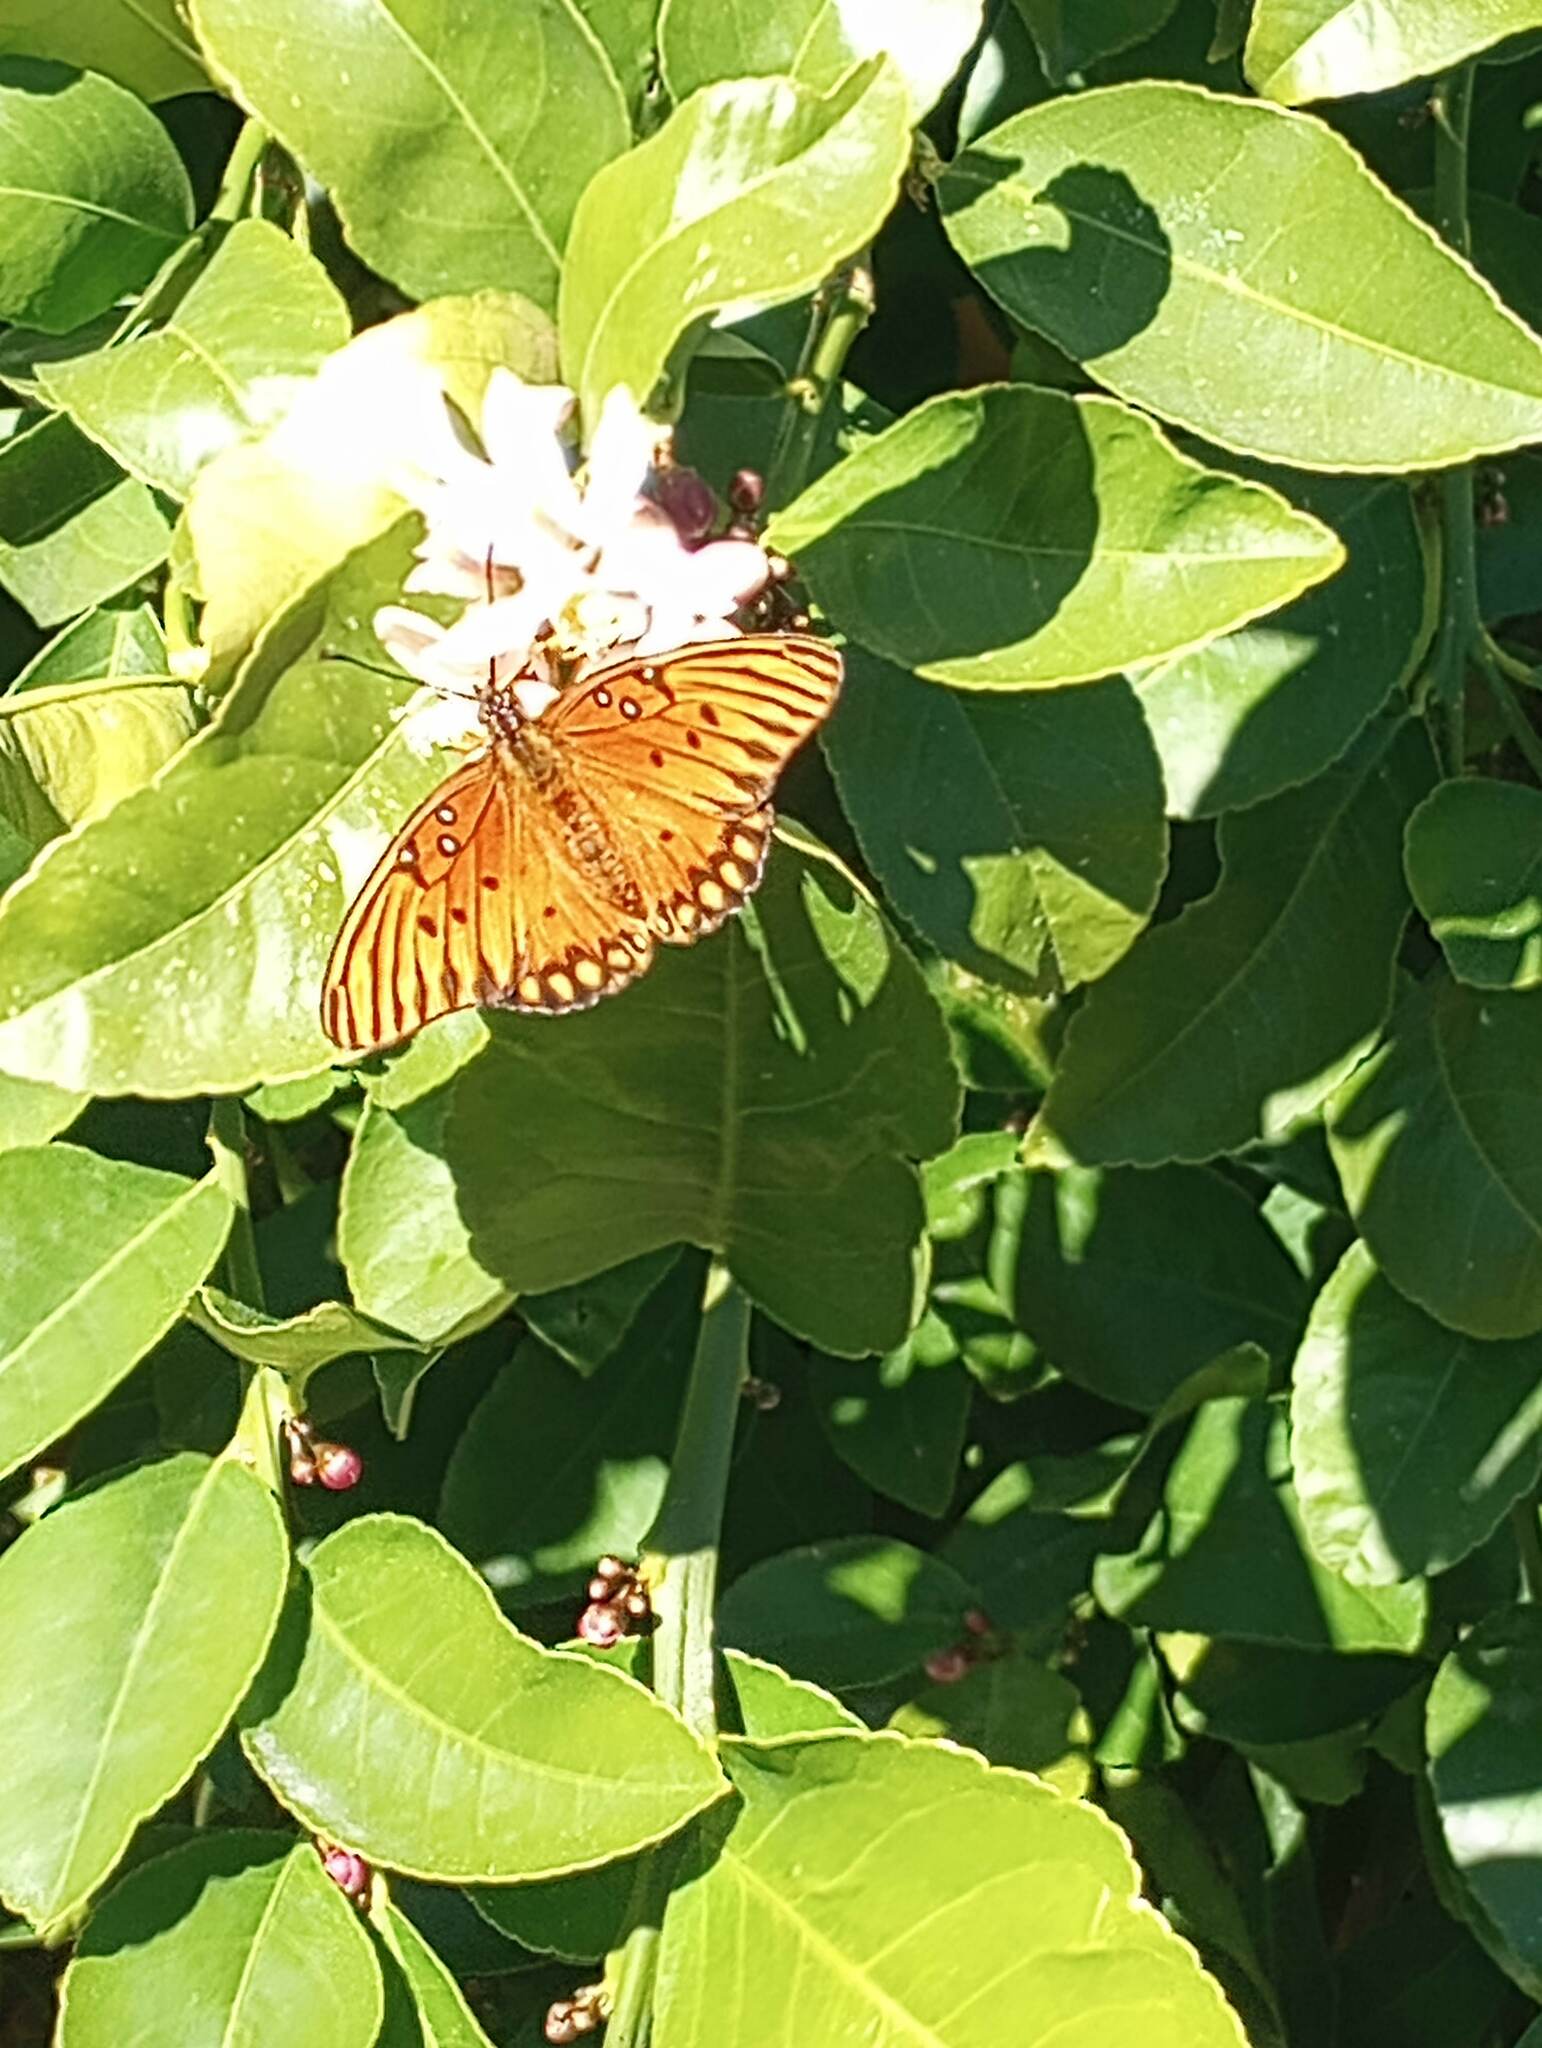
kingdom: Animalia
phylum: Arthropoda
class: Insecta
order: Lepidoptera
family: Nymphalidae
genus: Dione
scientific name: Dione vanillae
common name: Gulf fritillary
